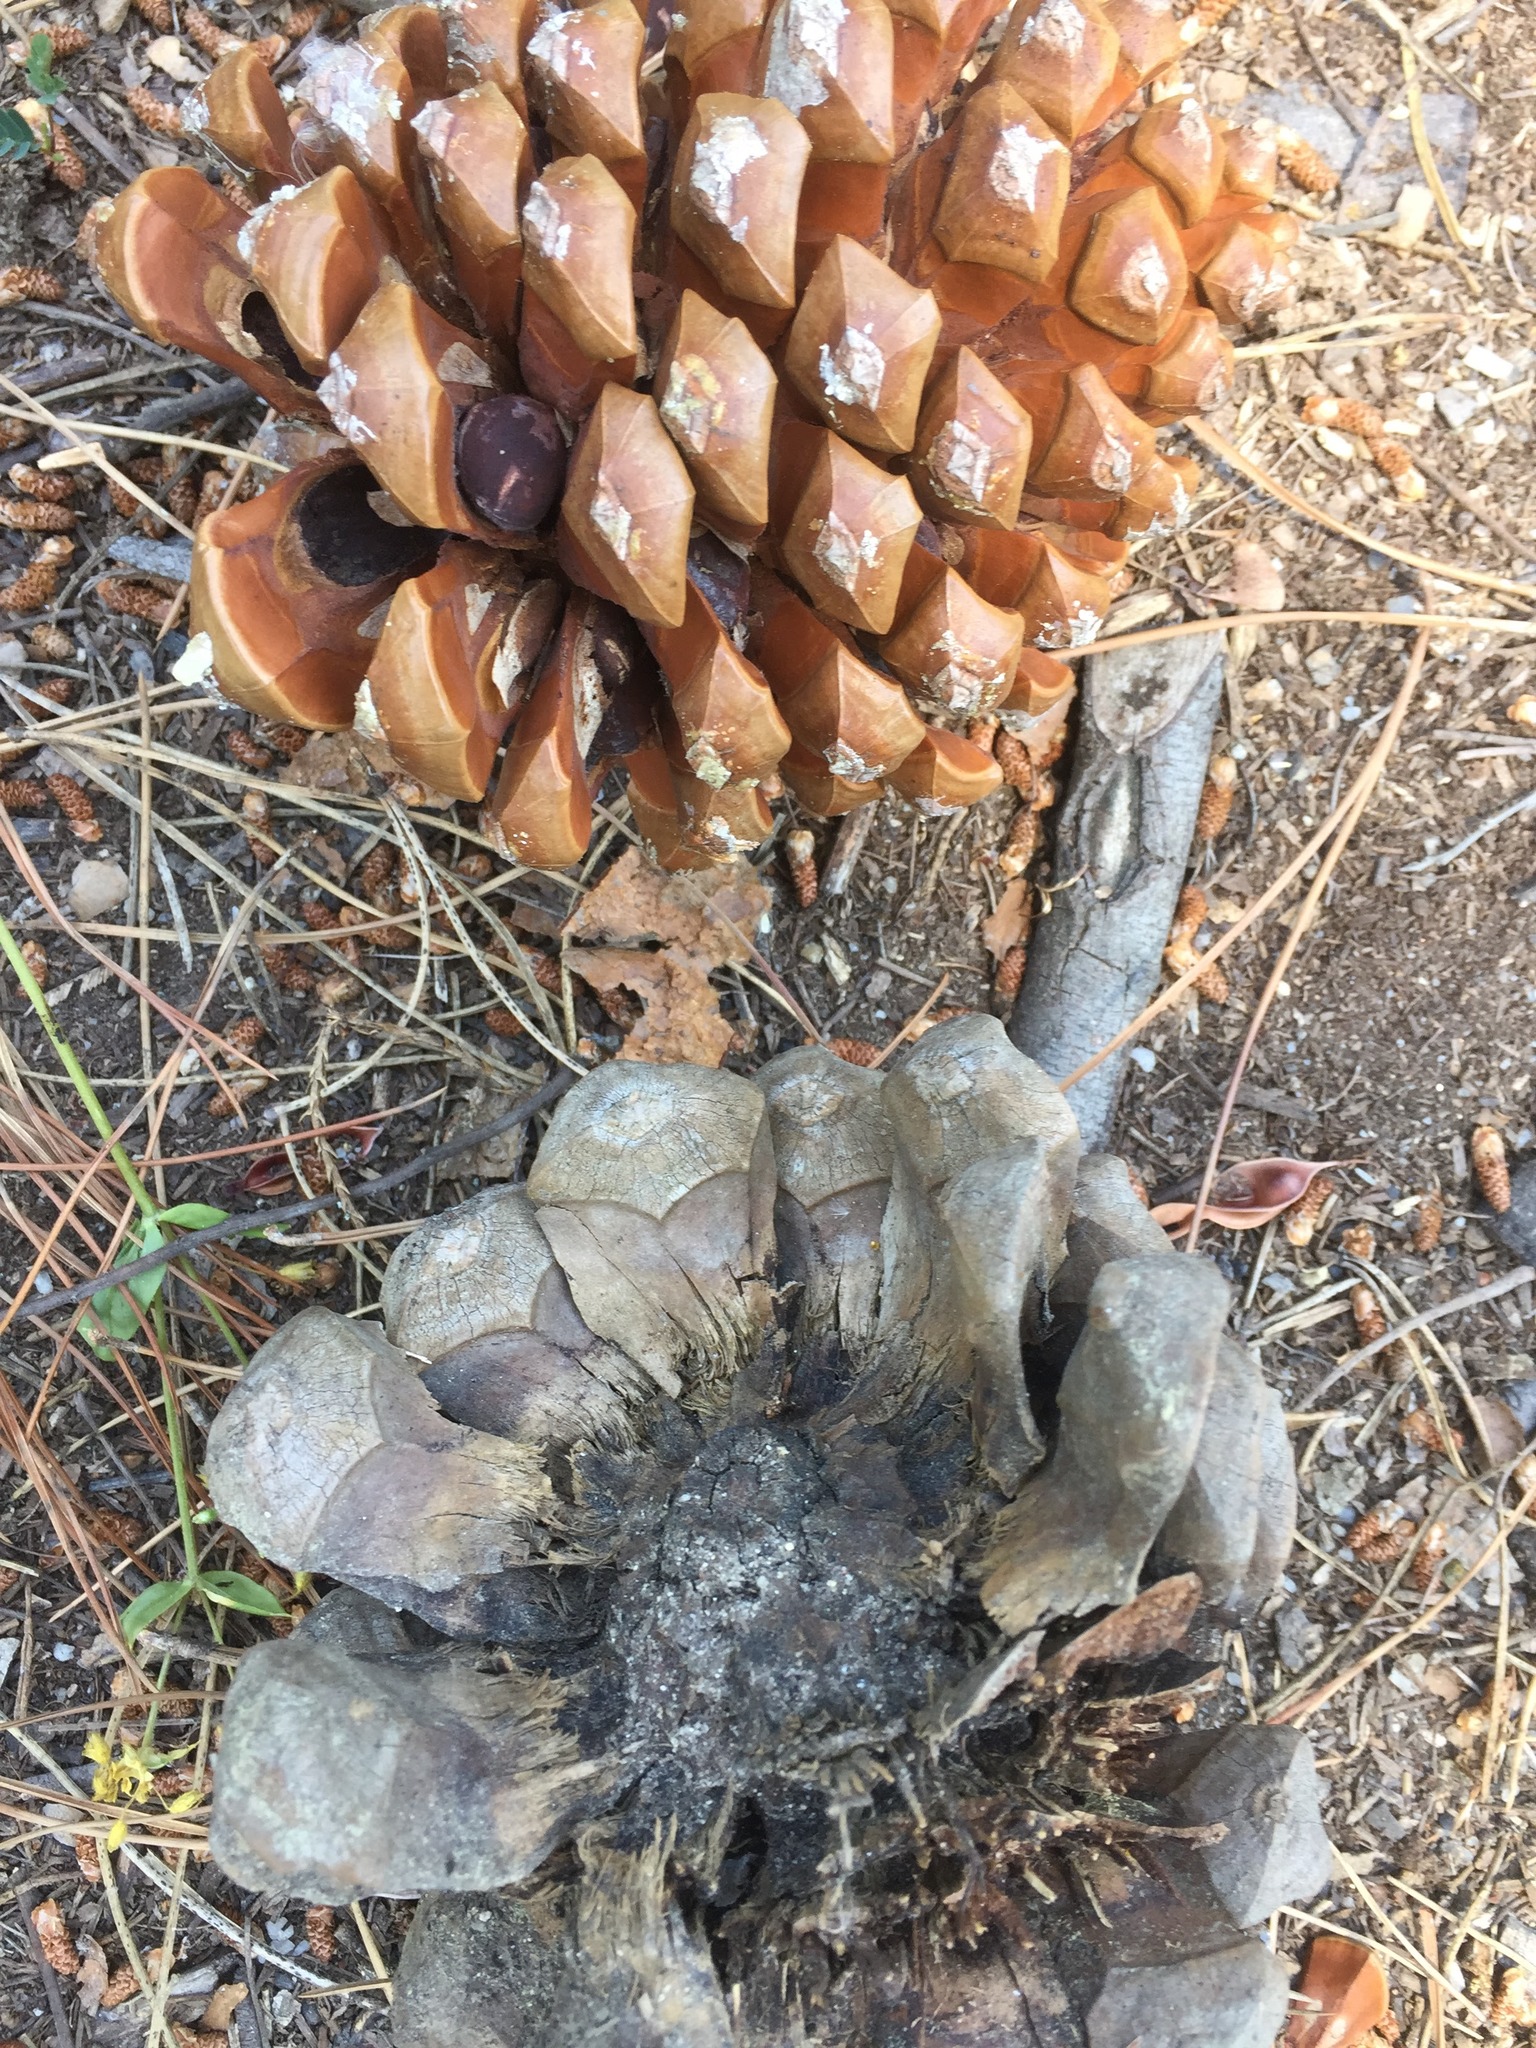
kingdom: Plantae
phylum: Tracheophyta
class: Pinopsida
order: Pinales
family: Pinaceae
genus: Pinus
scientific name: Pinus pinea
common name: Italian stone pine
